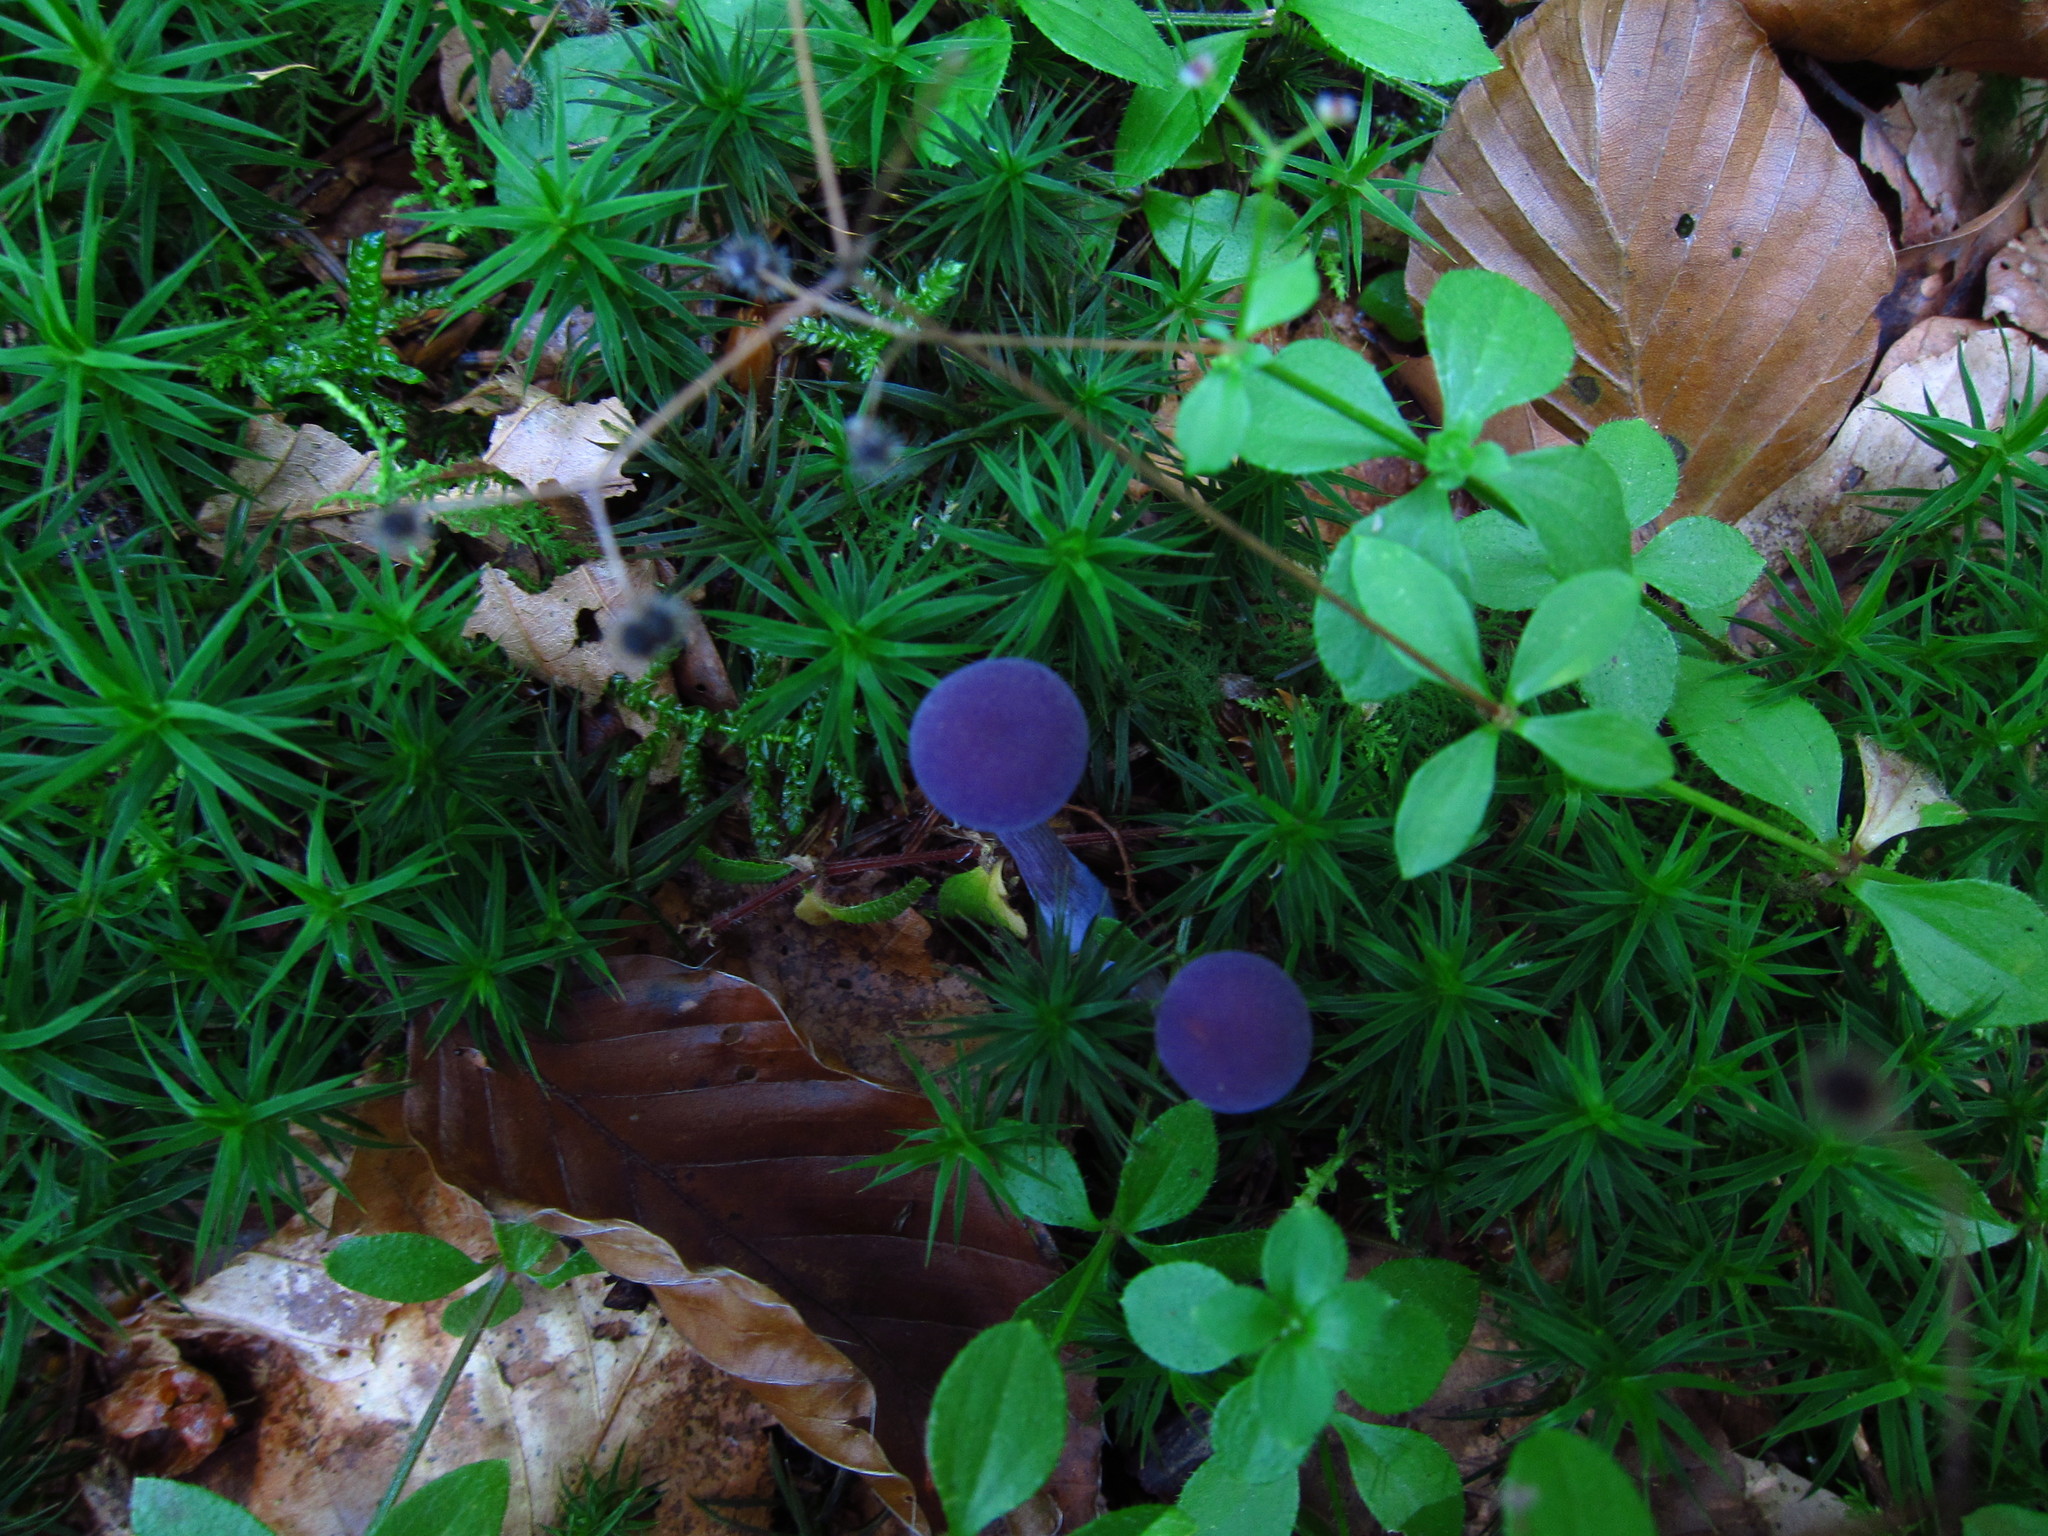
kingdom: Fungi
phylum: Basidiomycota
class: Agaricomycetes
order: Agaricales
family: Hydnangiaceae
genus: Laccaria
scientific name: Laccaria amethystina
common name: Amethyst deceiver
